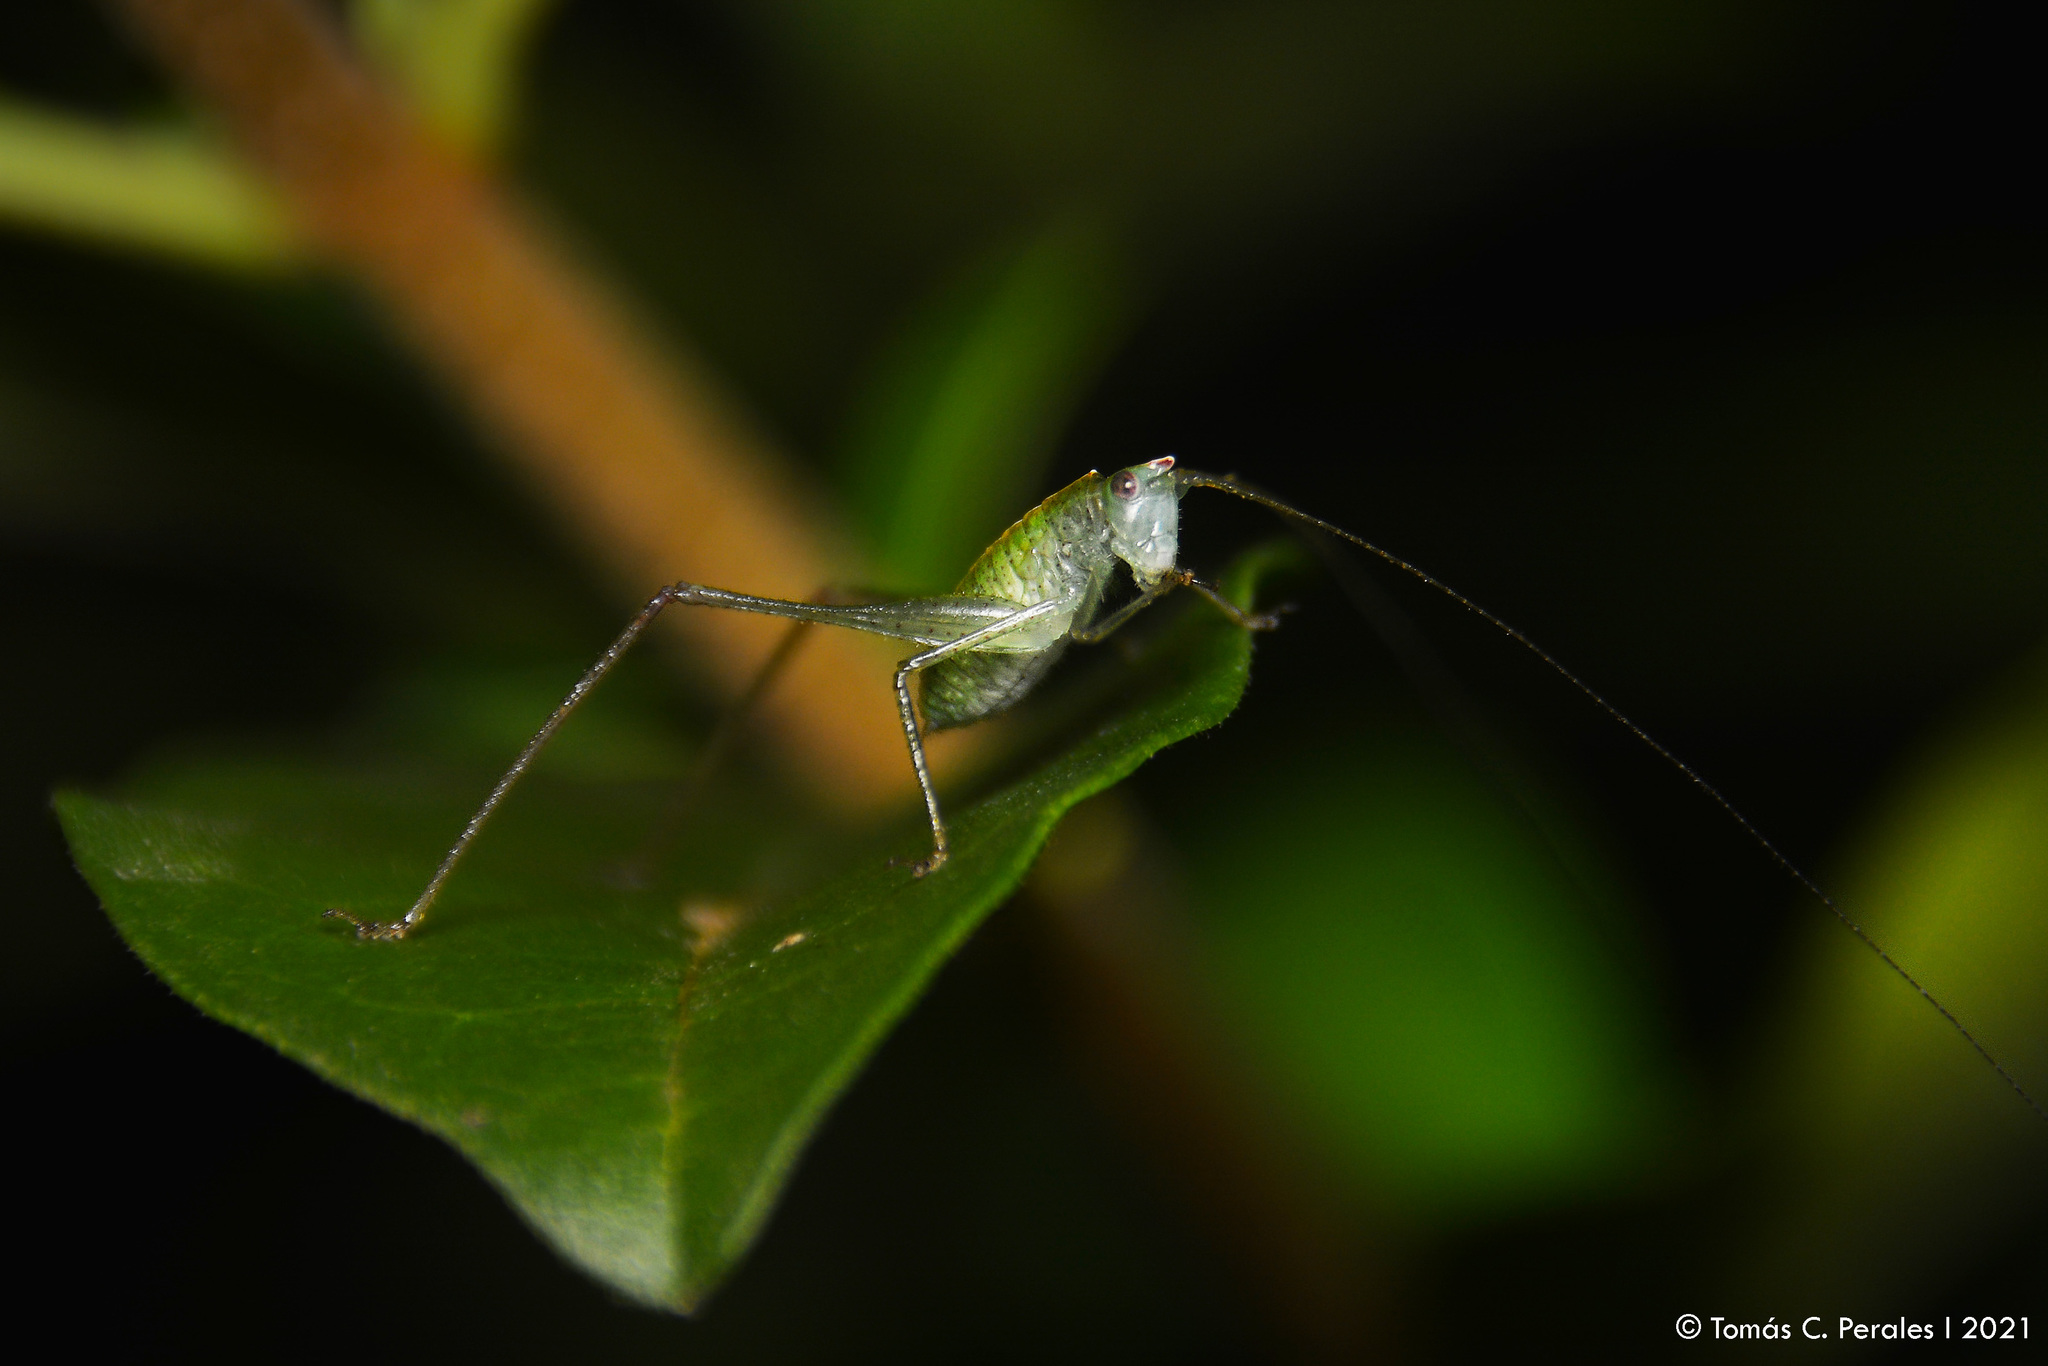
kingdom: Animalia
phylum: Arthropoda
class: Insecta
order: Orthoptera
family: Tettigoniidae
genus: Grammadera
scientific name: Grammadera clara
